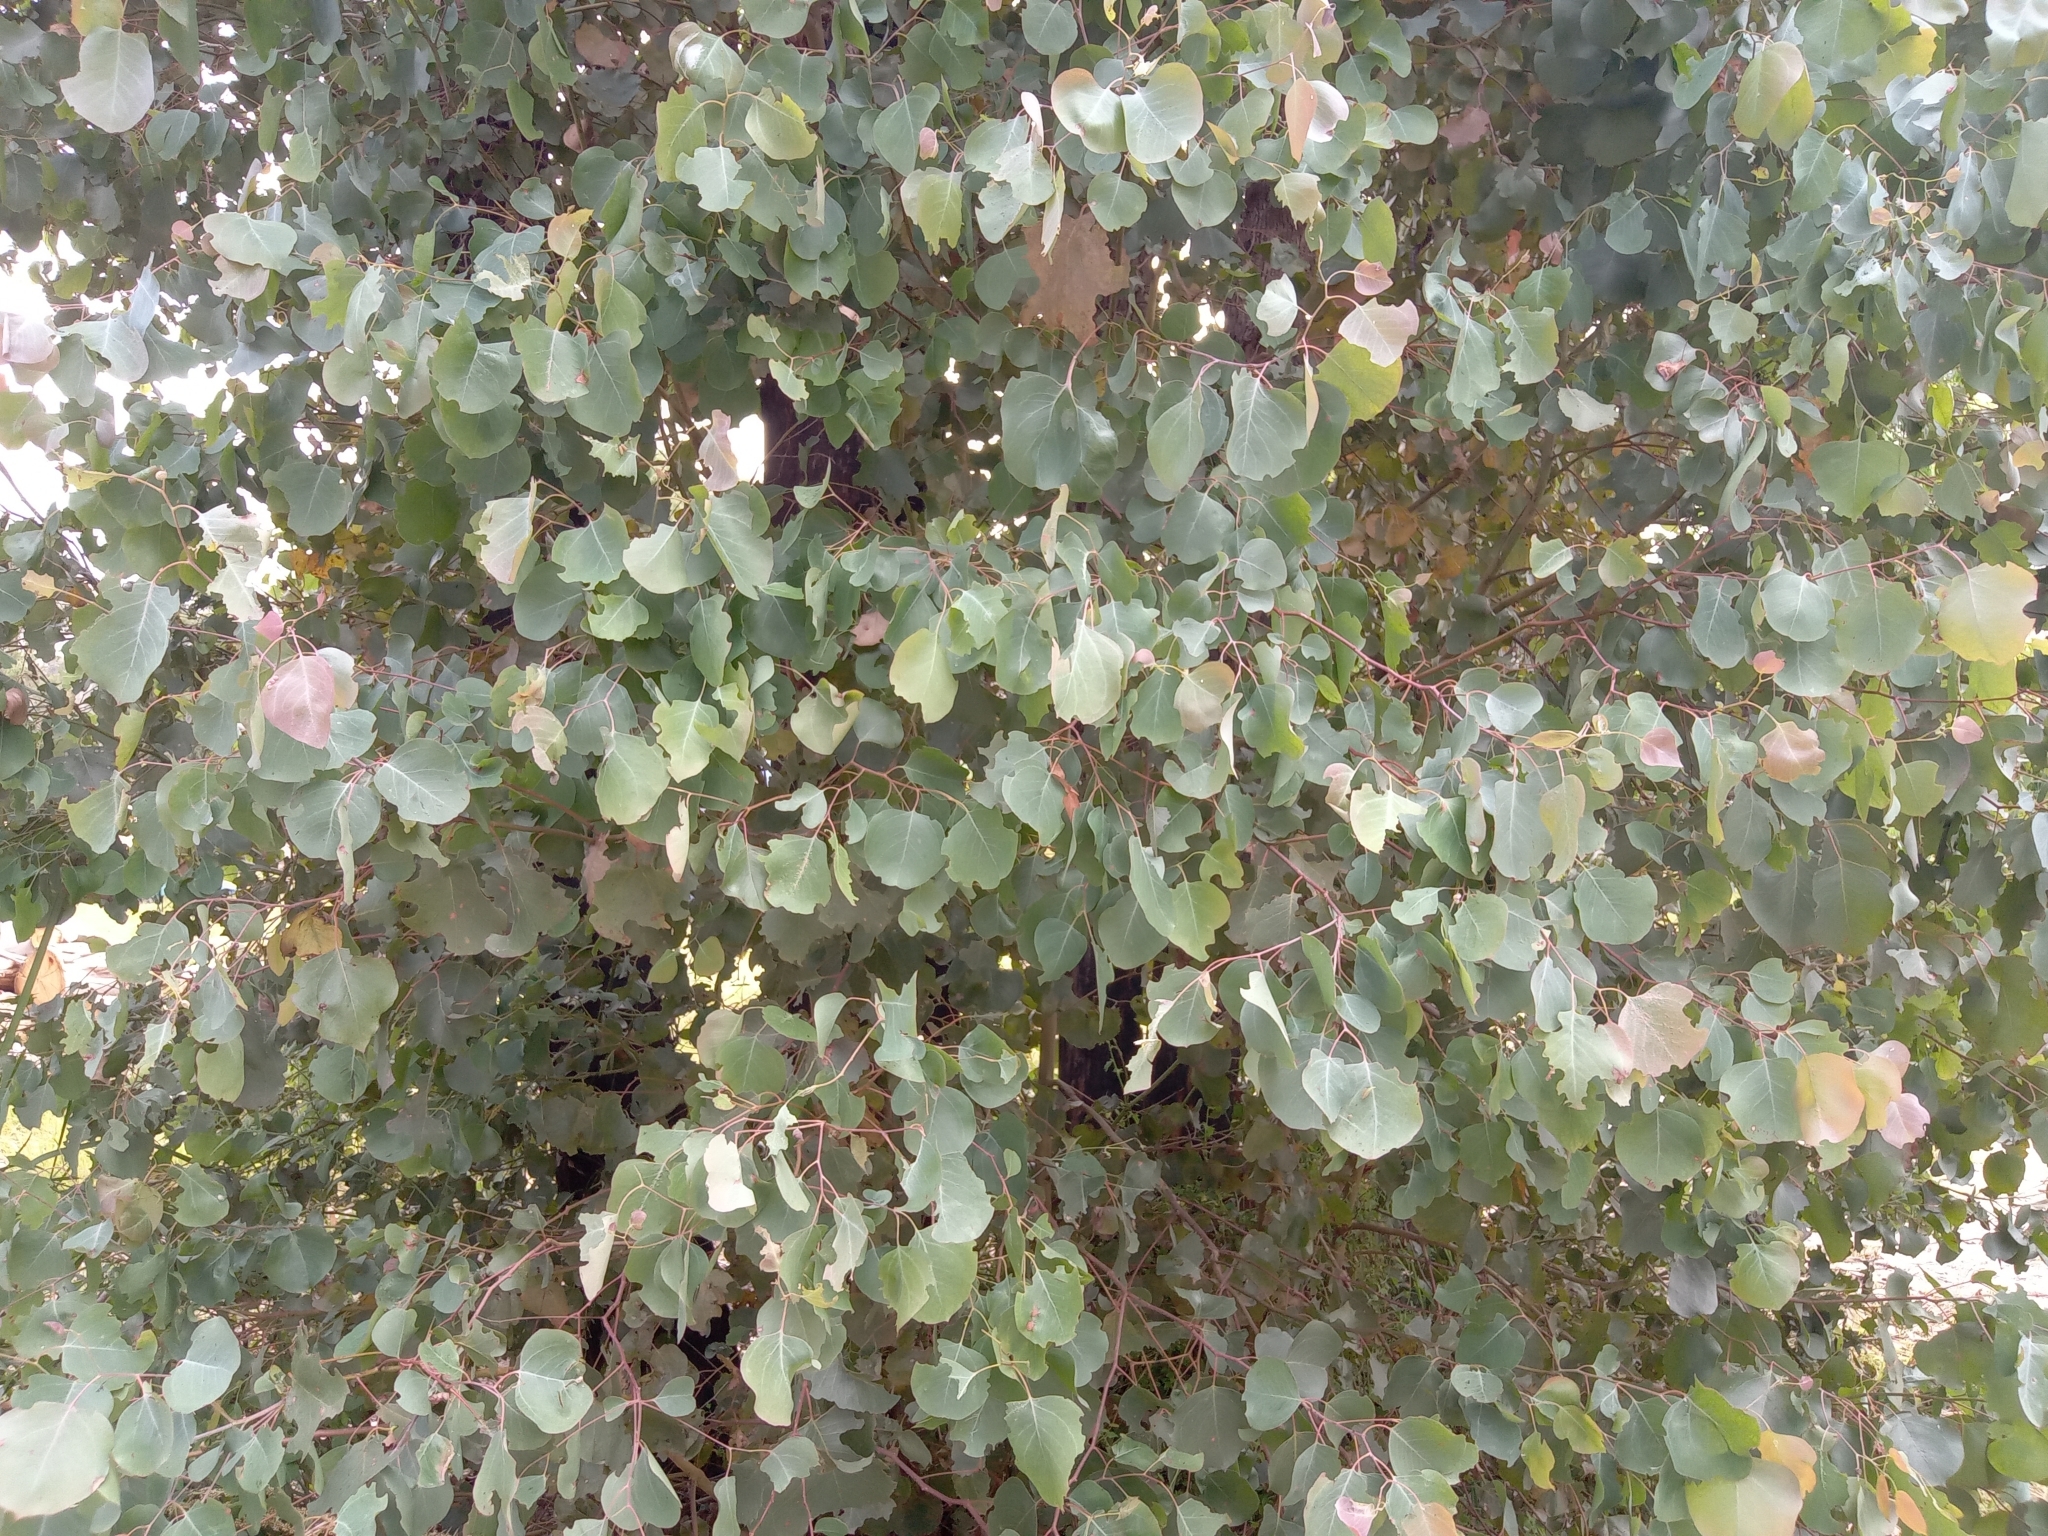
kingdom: Plantae
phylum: Tracheophyta
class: Magnoliopsida
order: Myrtales
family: Myrtaceae
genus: Eucalyptus
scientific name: Eucalyptus baueriana
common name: Round-leaf-box
